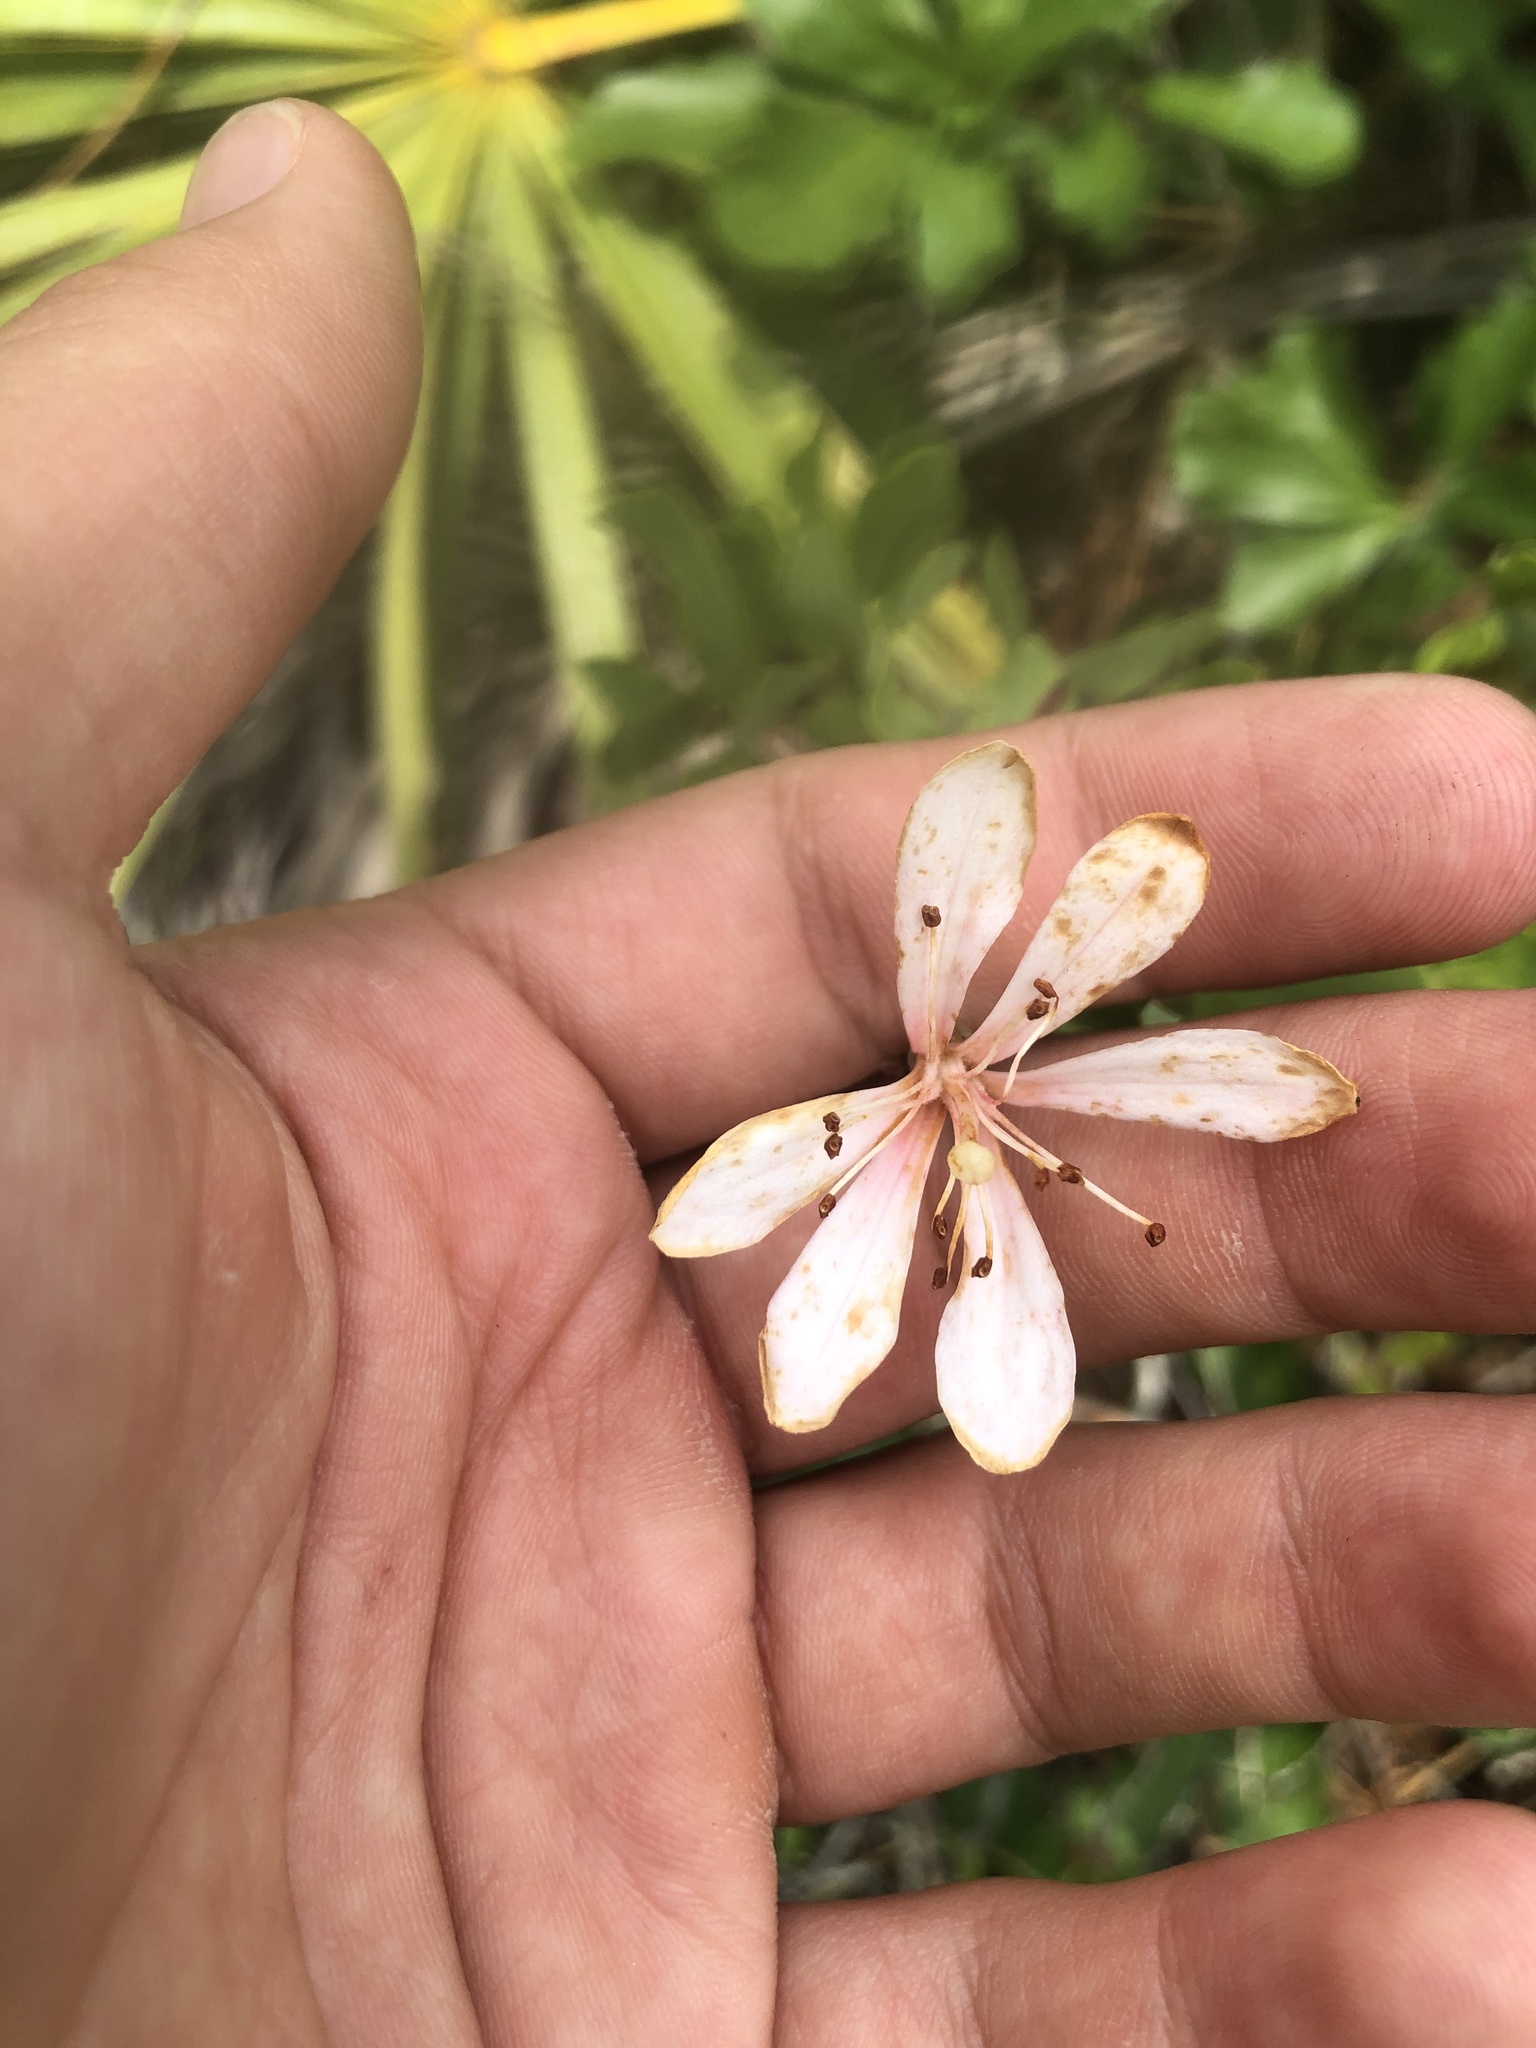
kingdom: Plantae
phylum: Tracheophyta
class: Magnoliopsida
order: Ericales
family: Ericaceae
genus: Bejaria
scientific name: Bejaria racemosa
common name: Tarflower
